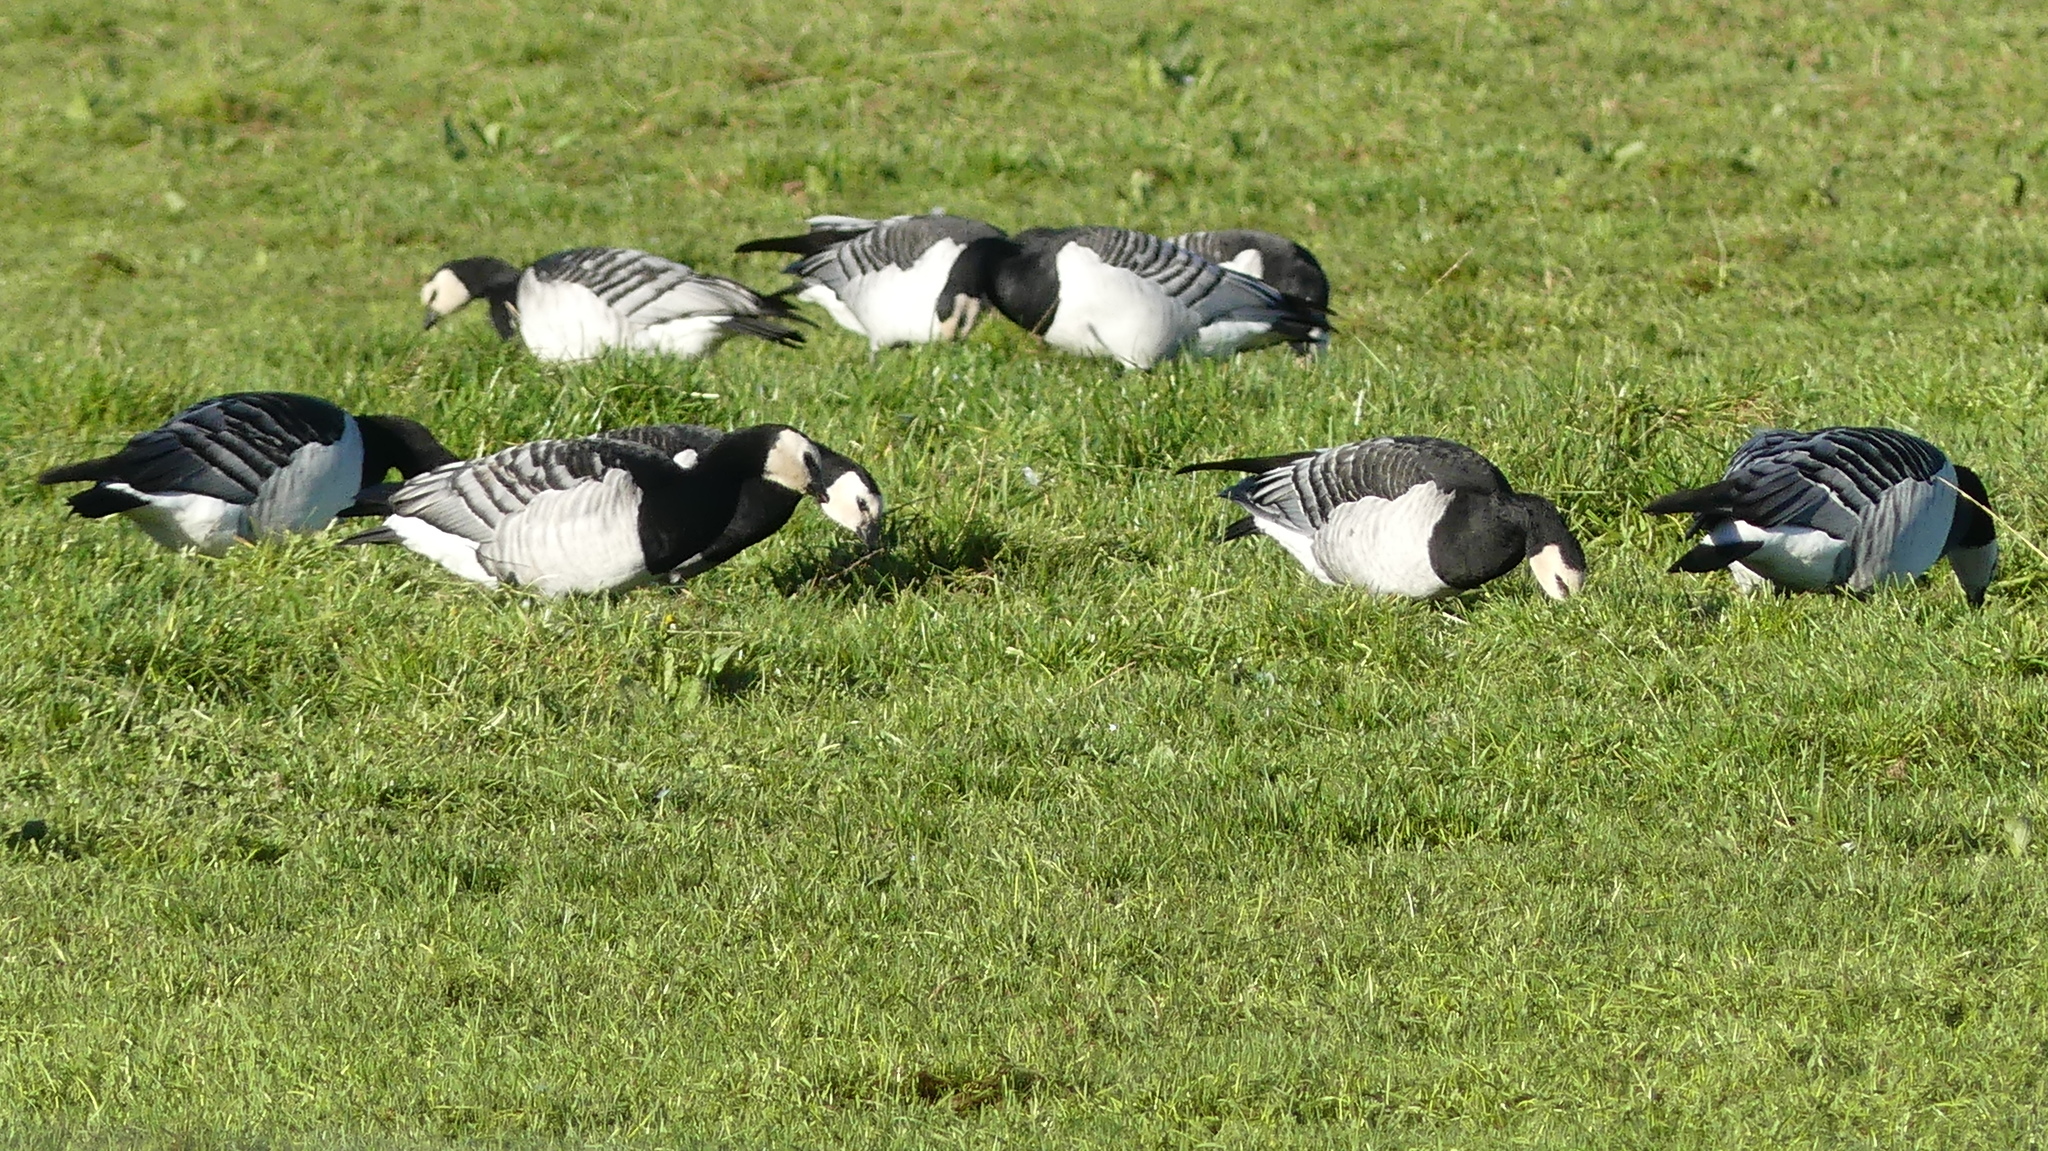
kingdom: Animalia
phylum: Chordata
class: Aves
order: Anseriformes
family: Anatidae
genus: Branta
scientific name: Branta leucopsis
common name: Barnacle goose
